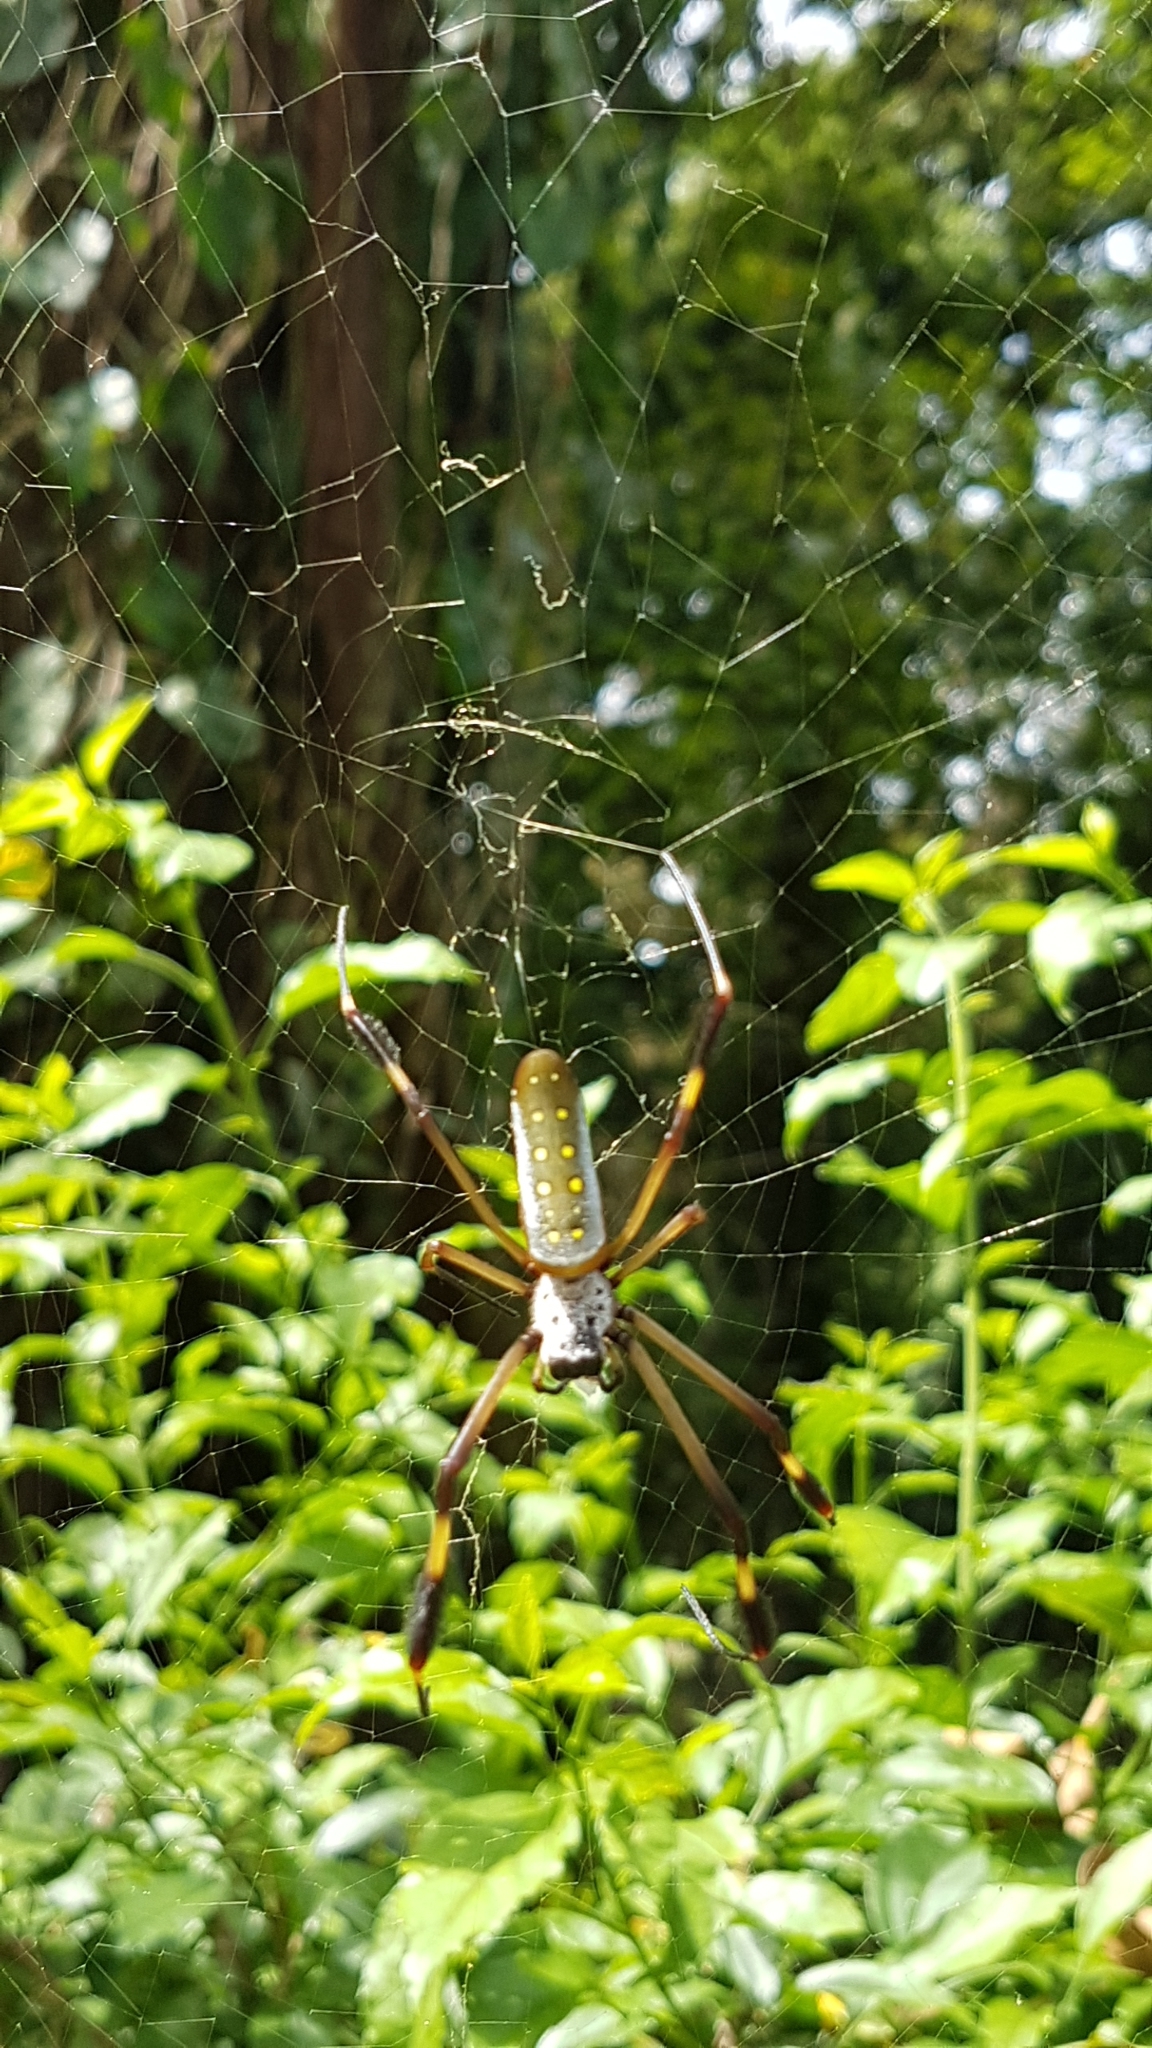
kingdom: Animalia
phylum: Arthropoda
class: Arachnida
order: Araneae
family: Araneidae
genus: Trichonephila
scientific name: Trichonephila clavipes
